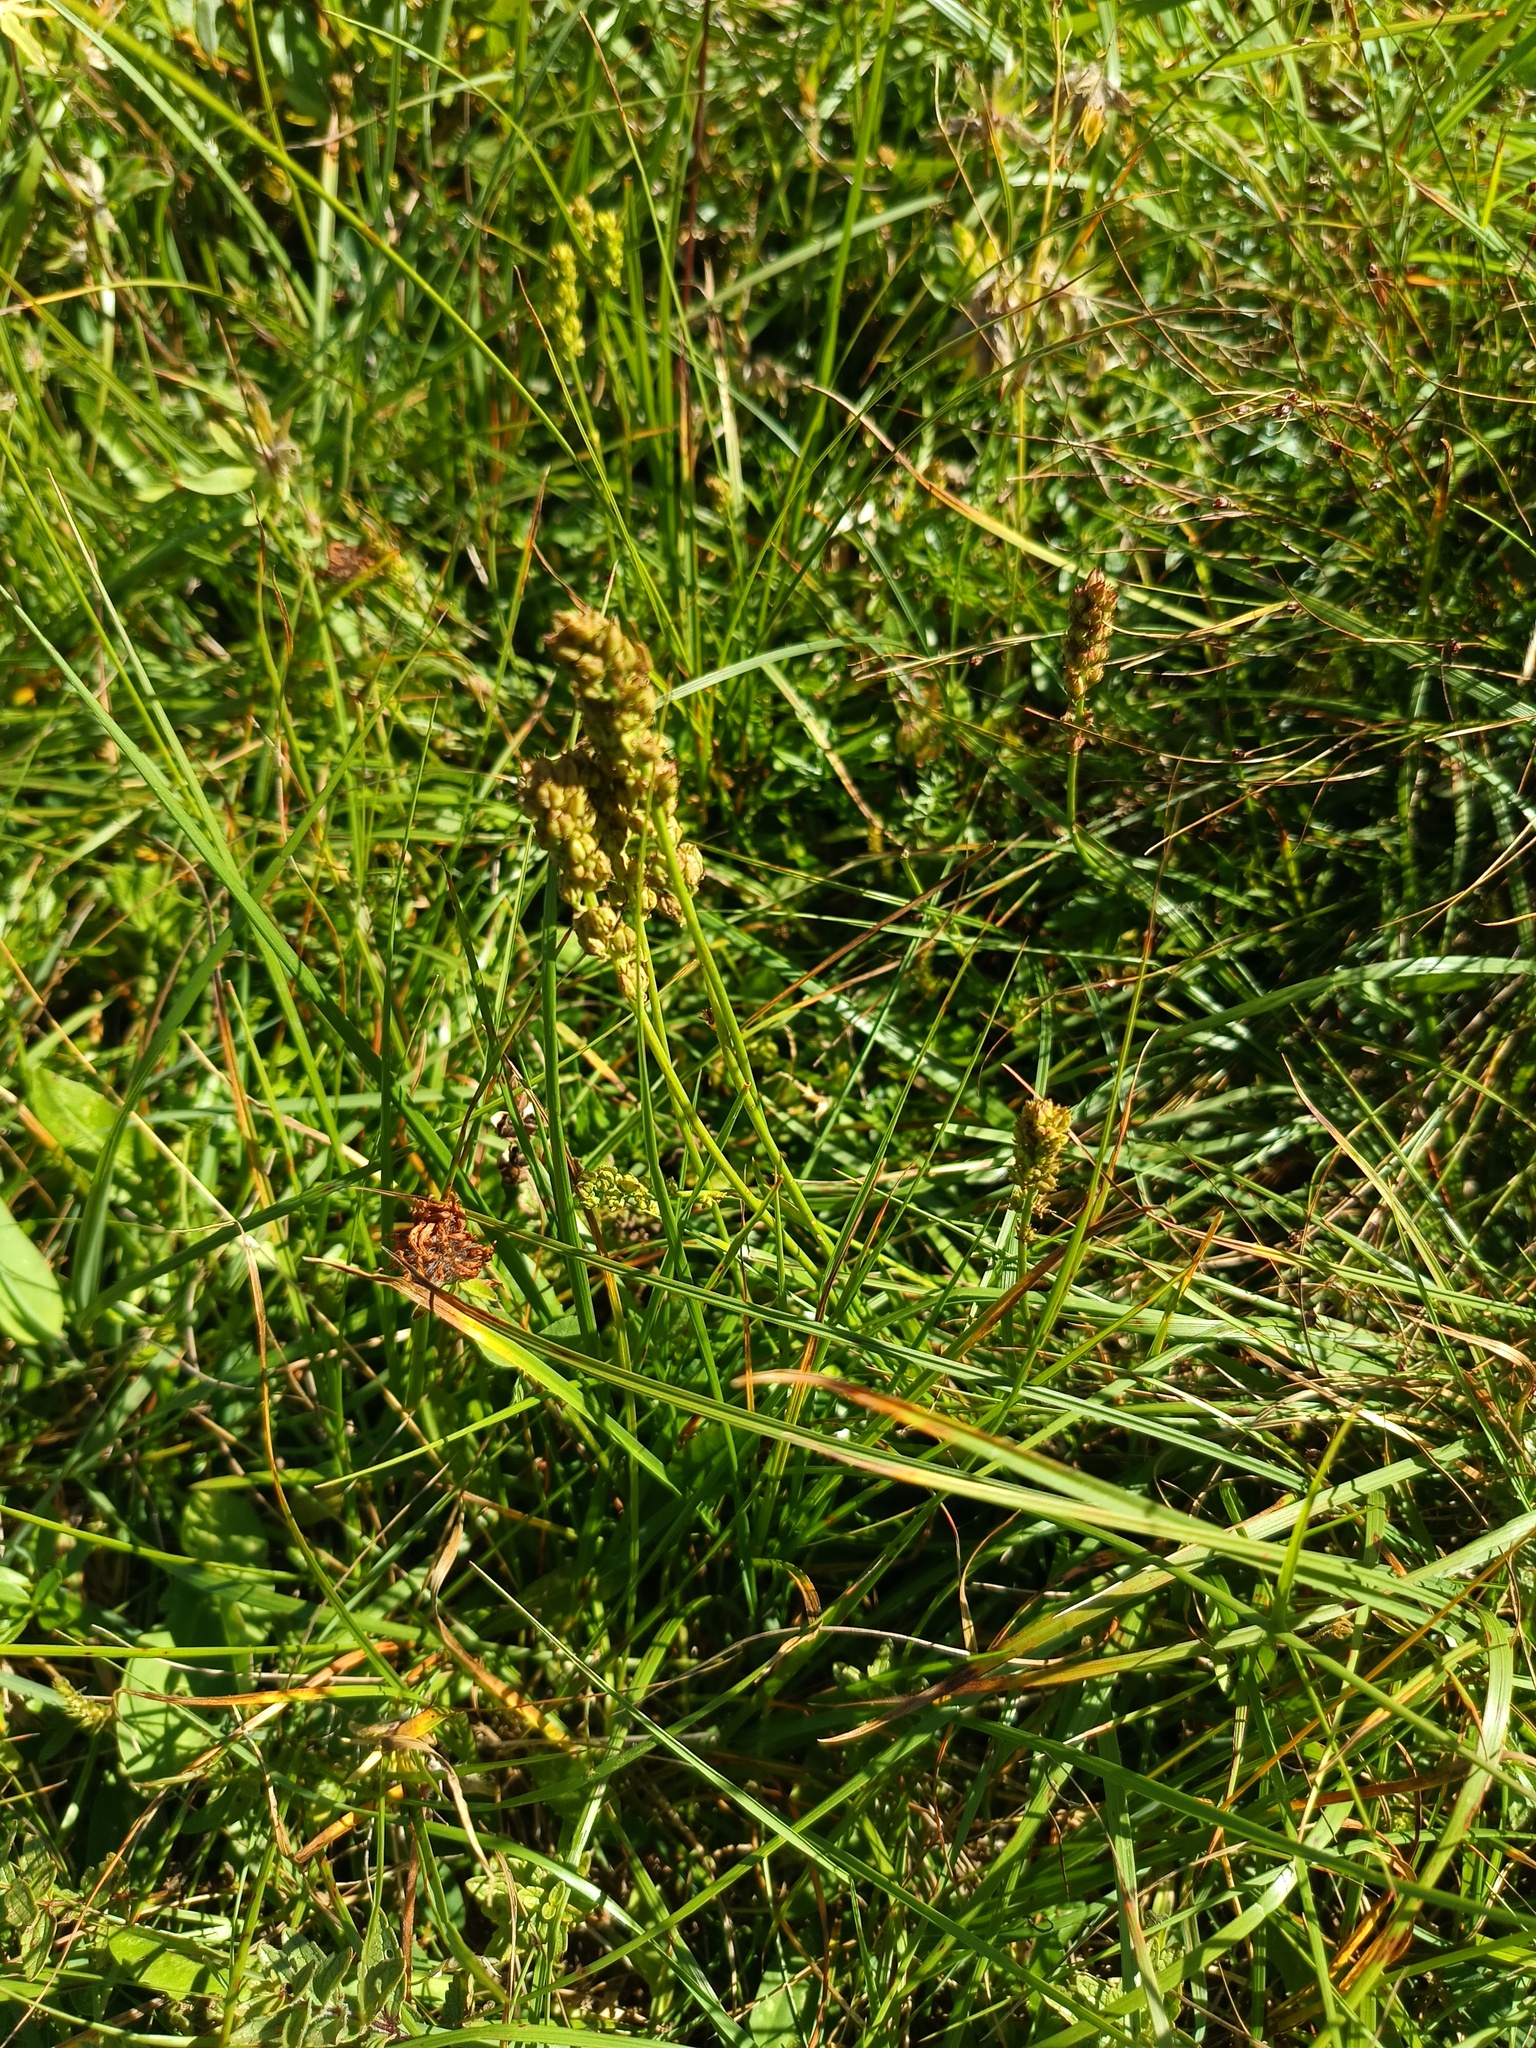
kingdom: Plantae
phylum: Tracheophyta
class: Liliopsida
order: Alismatales
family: Tofieldiaceae
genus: Tofieldia
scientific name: Tofieldia calyculata
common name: German-asphodel
